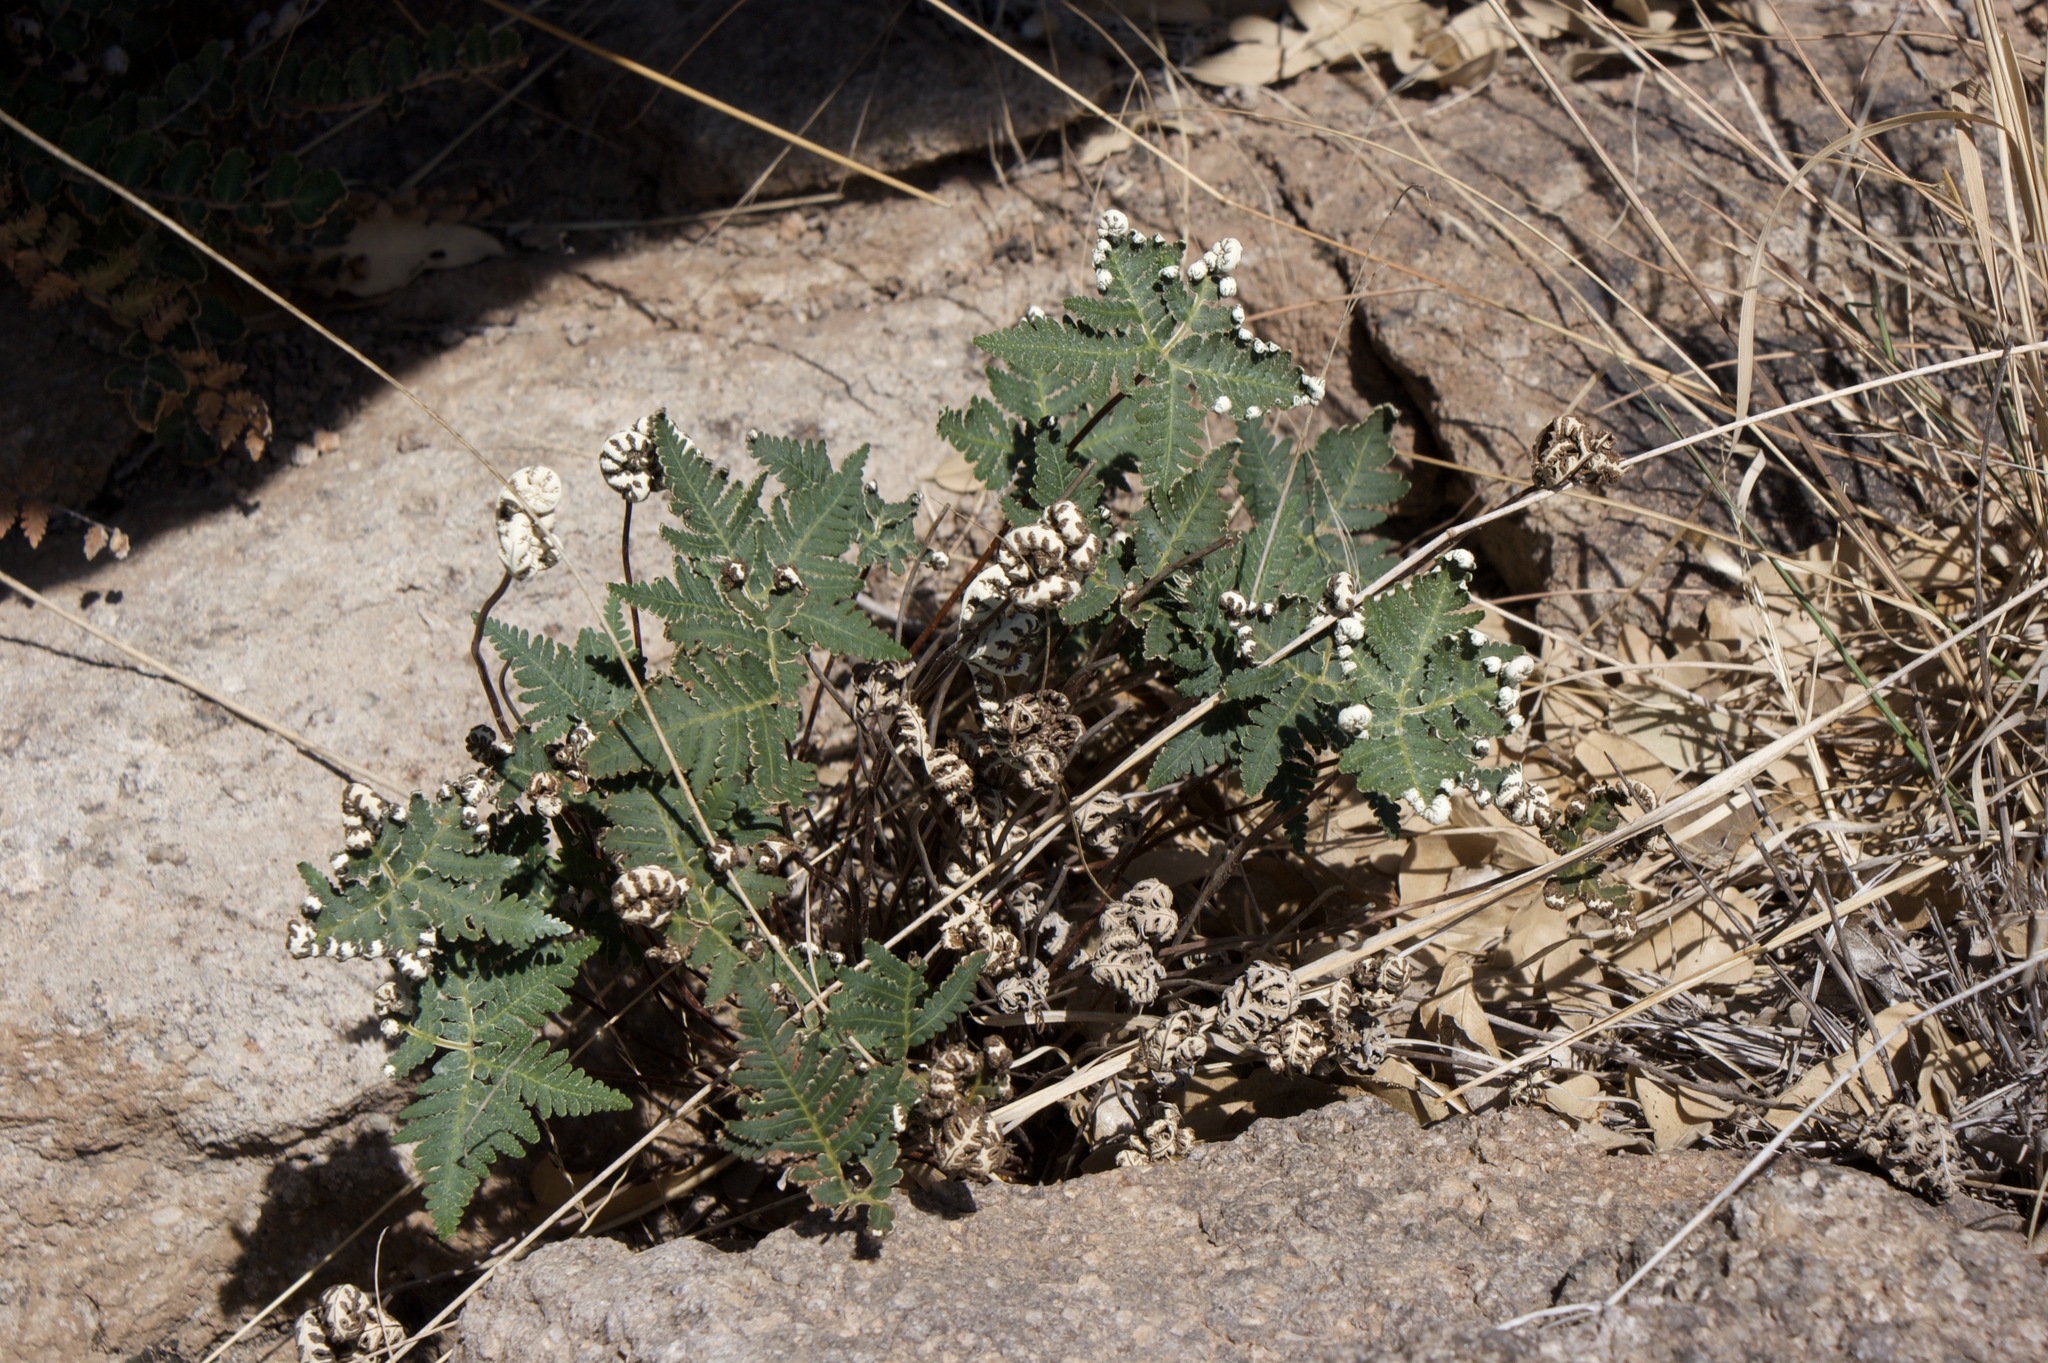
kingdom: Plantae
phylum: Tracheophyta
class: Polypodiopsida
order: Polypodiales
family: Pteridaceae
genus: Notholaena
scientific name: Notholaena standleyi
